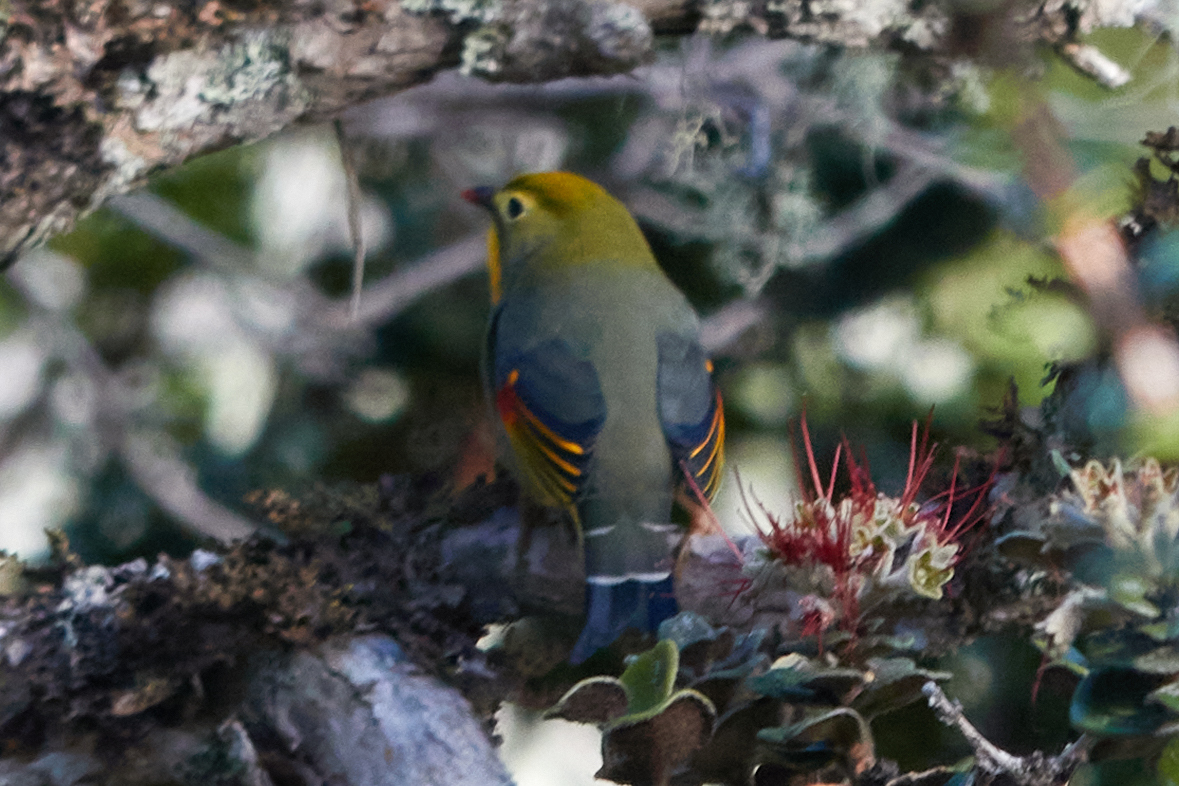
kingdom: Animalia
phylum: Chordata
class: Aves
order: Passeriformes
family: Leiothrichidae
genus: Leiothrix
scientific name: Leiothrix lutea
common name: Red-billed leiothrix
